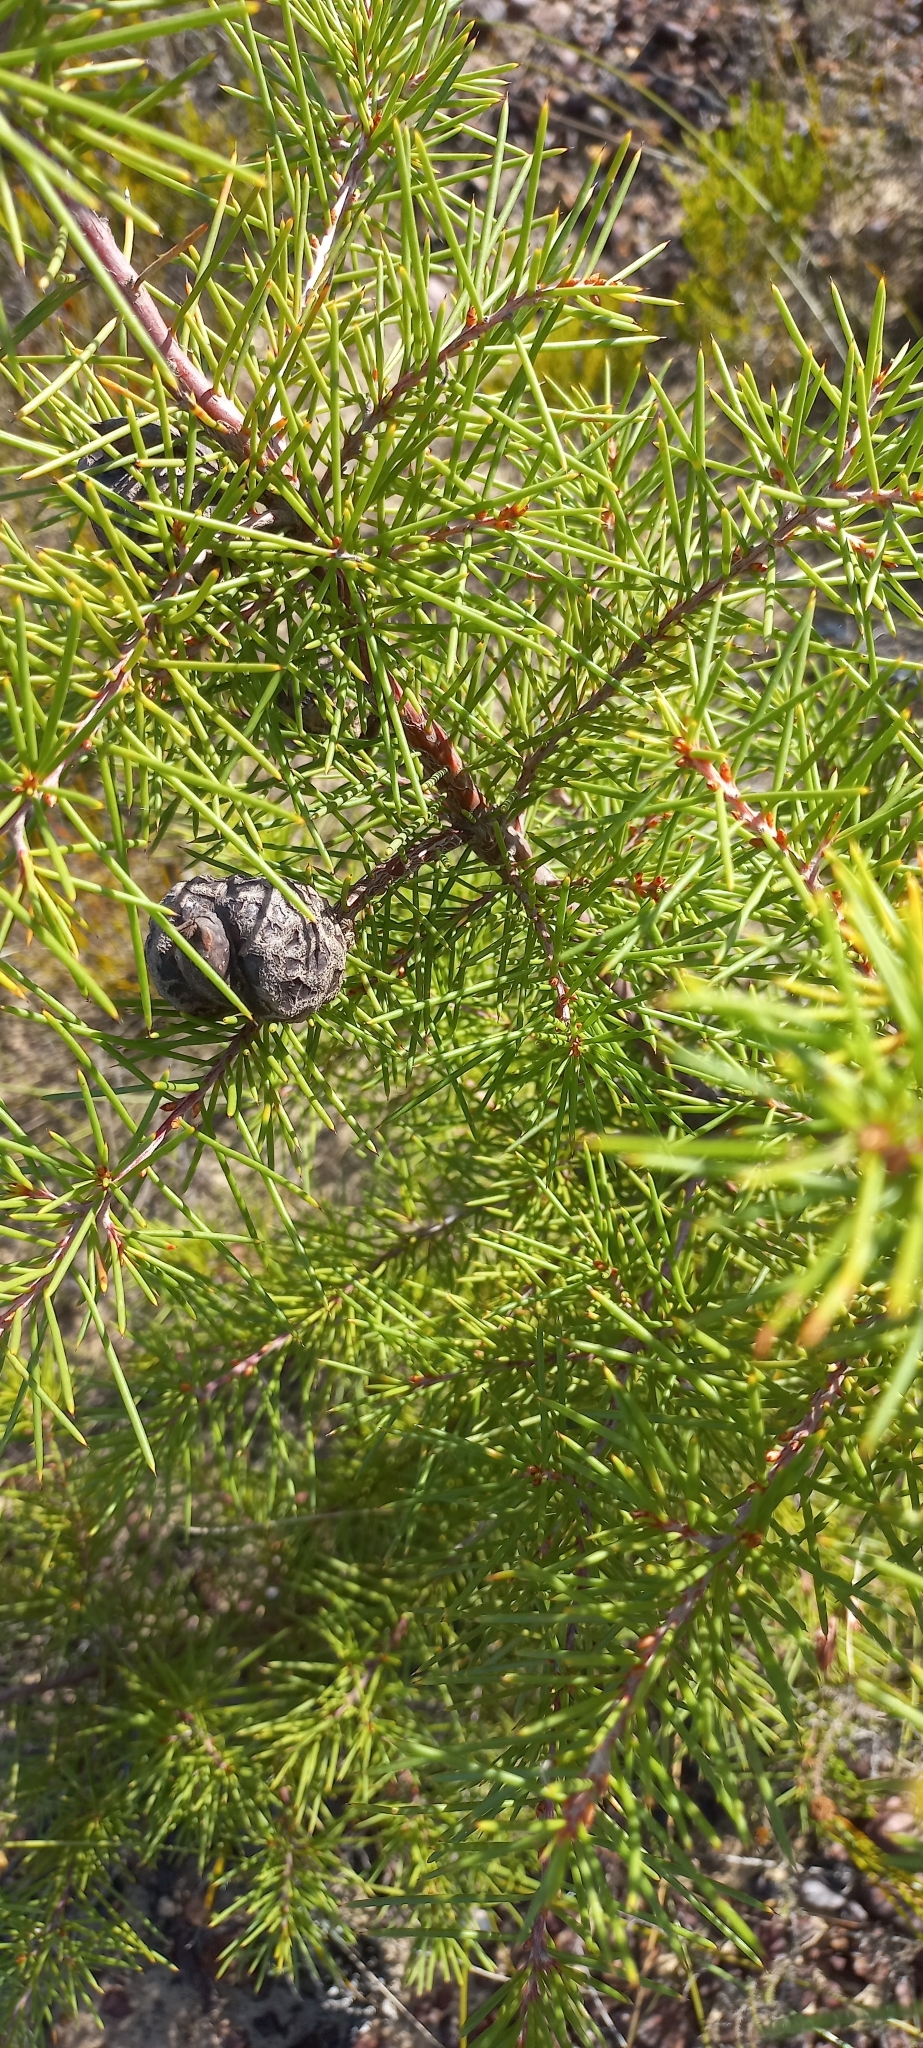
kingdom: Plantae
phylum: Tracheophyta
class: Magnoliopsida
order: Proteales
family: Proteaceae
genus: Hakea
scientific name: Hakea sericea
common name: Needle bush
